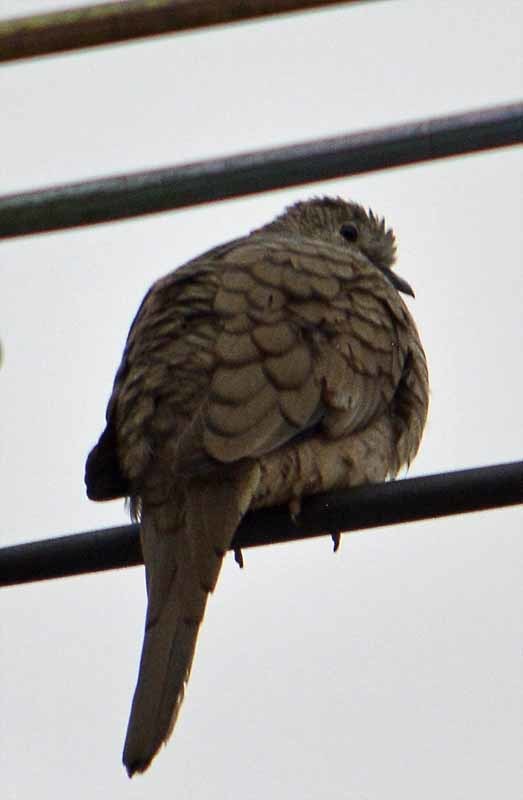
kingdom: Animalia
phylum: Chordata
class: Aves
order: Columbiformes
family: Columbidae
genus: Columbina
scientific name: Columbina inca
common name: Inca dove
